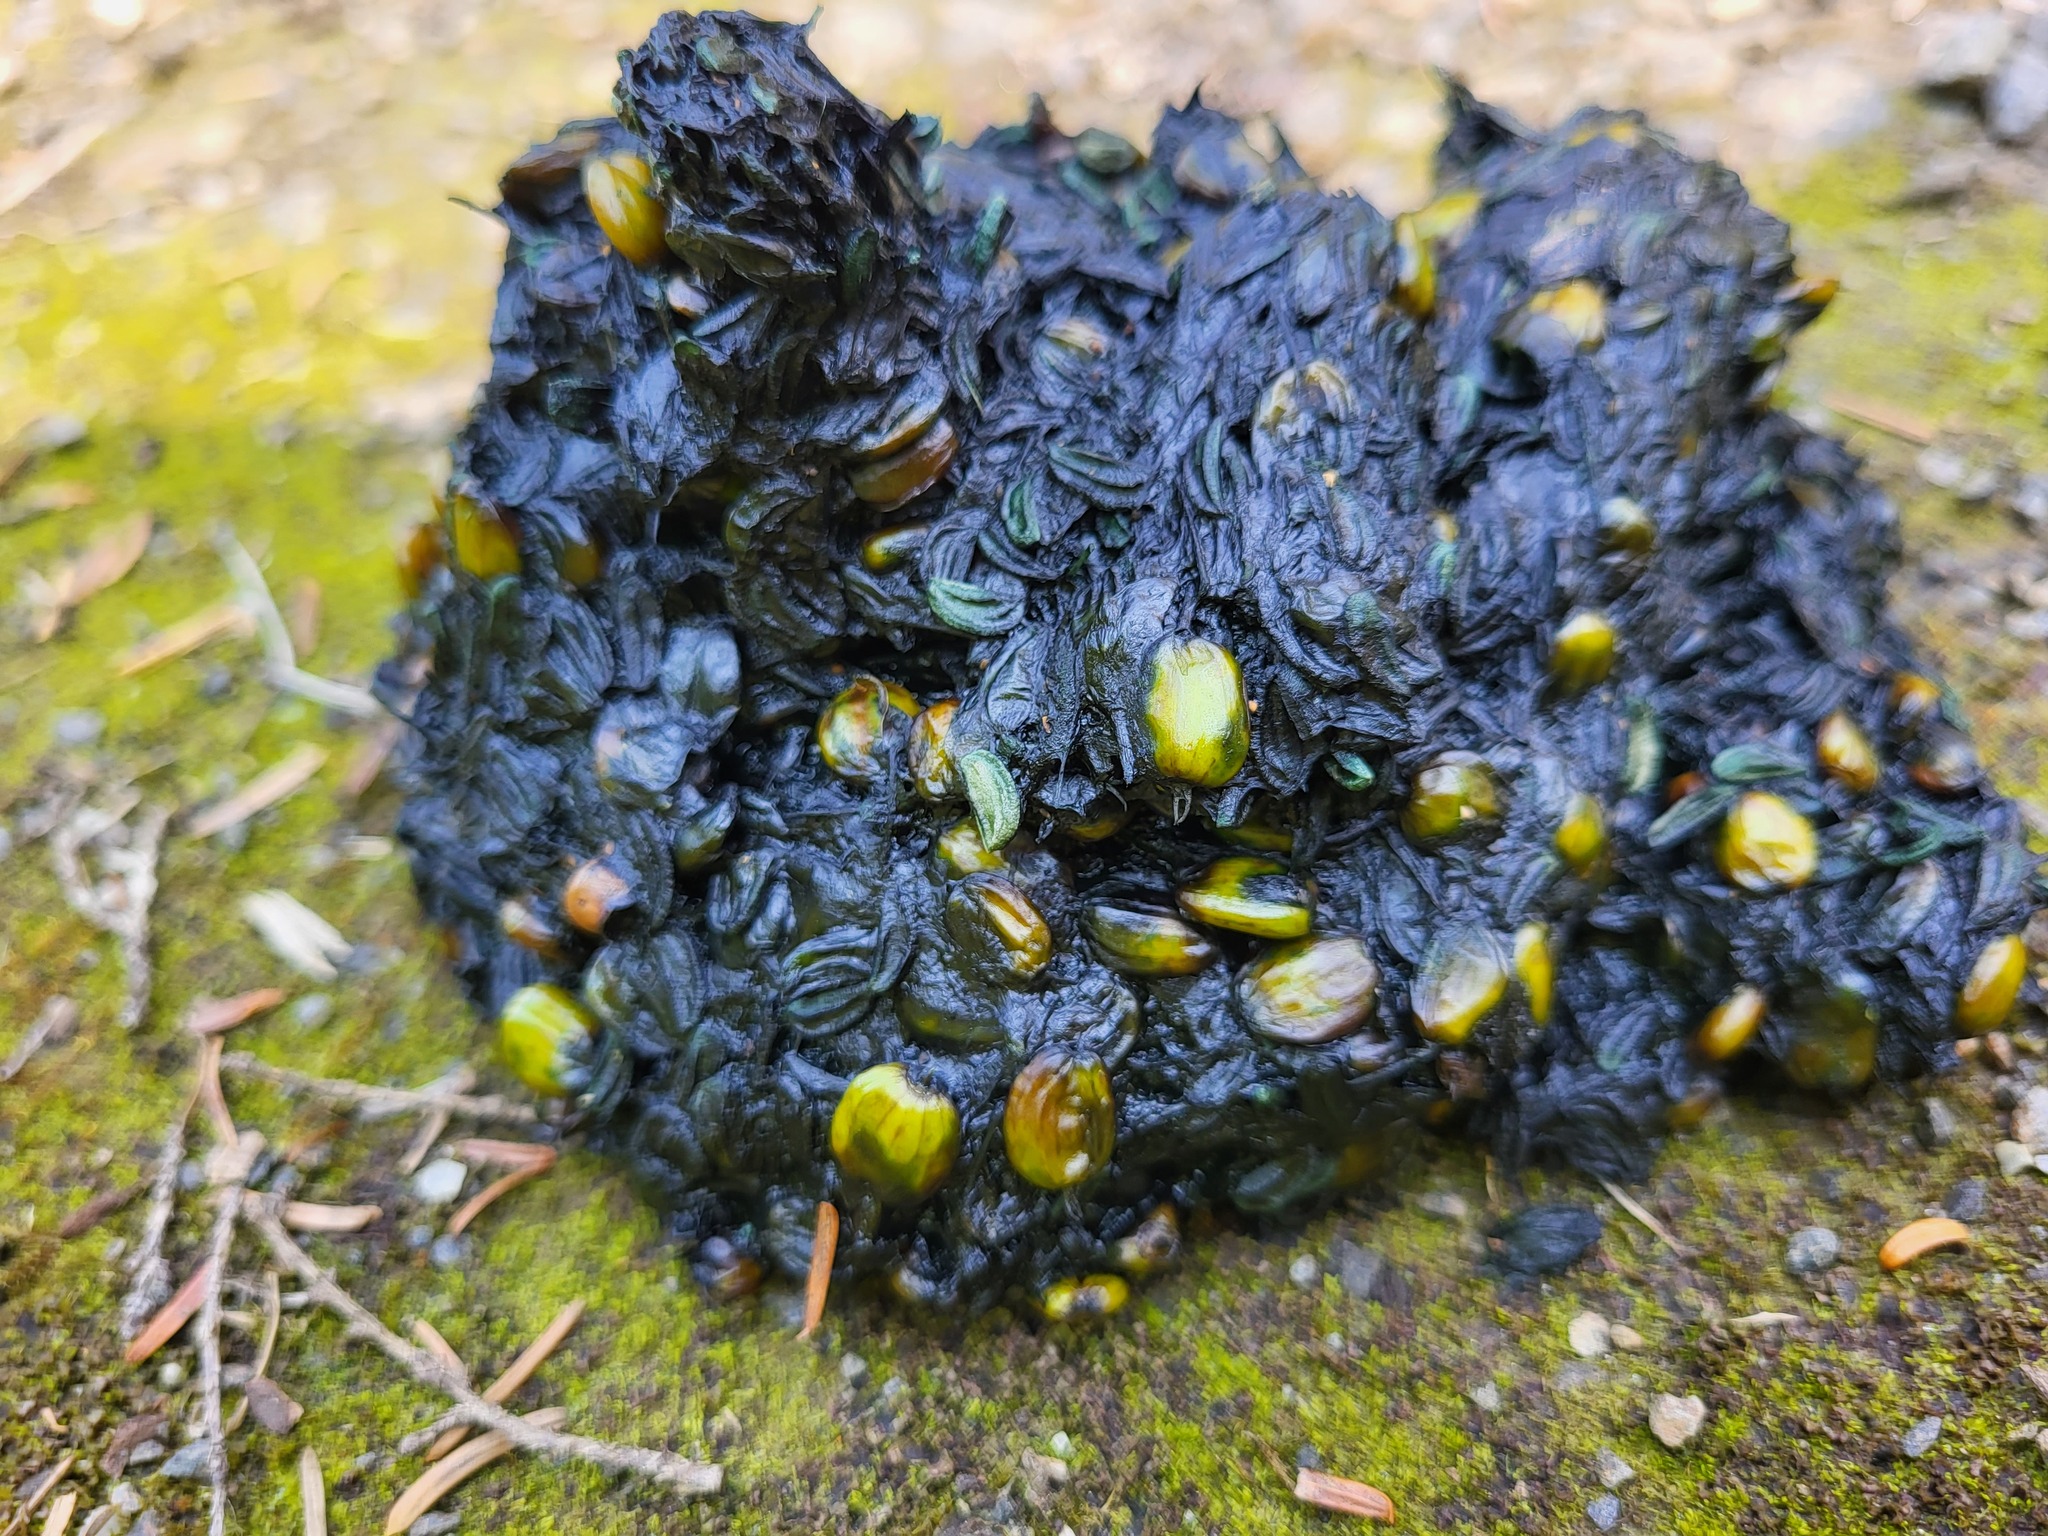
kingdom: Plantae
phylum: Tracheophyta
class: Magnoliopsida
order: Apiales
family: Apiaceae
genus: Heracleum
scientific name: Heracleum maximum
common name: American cow parsnip
